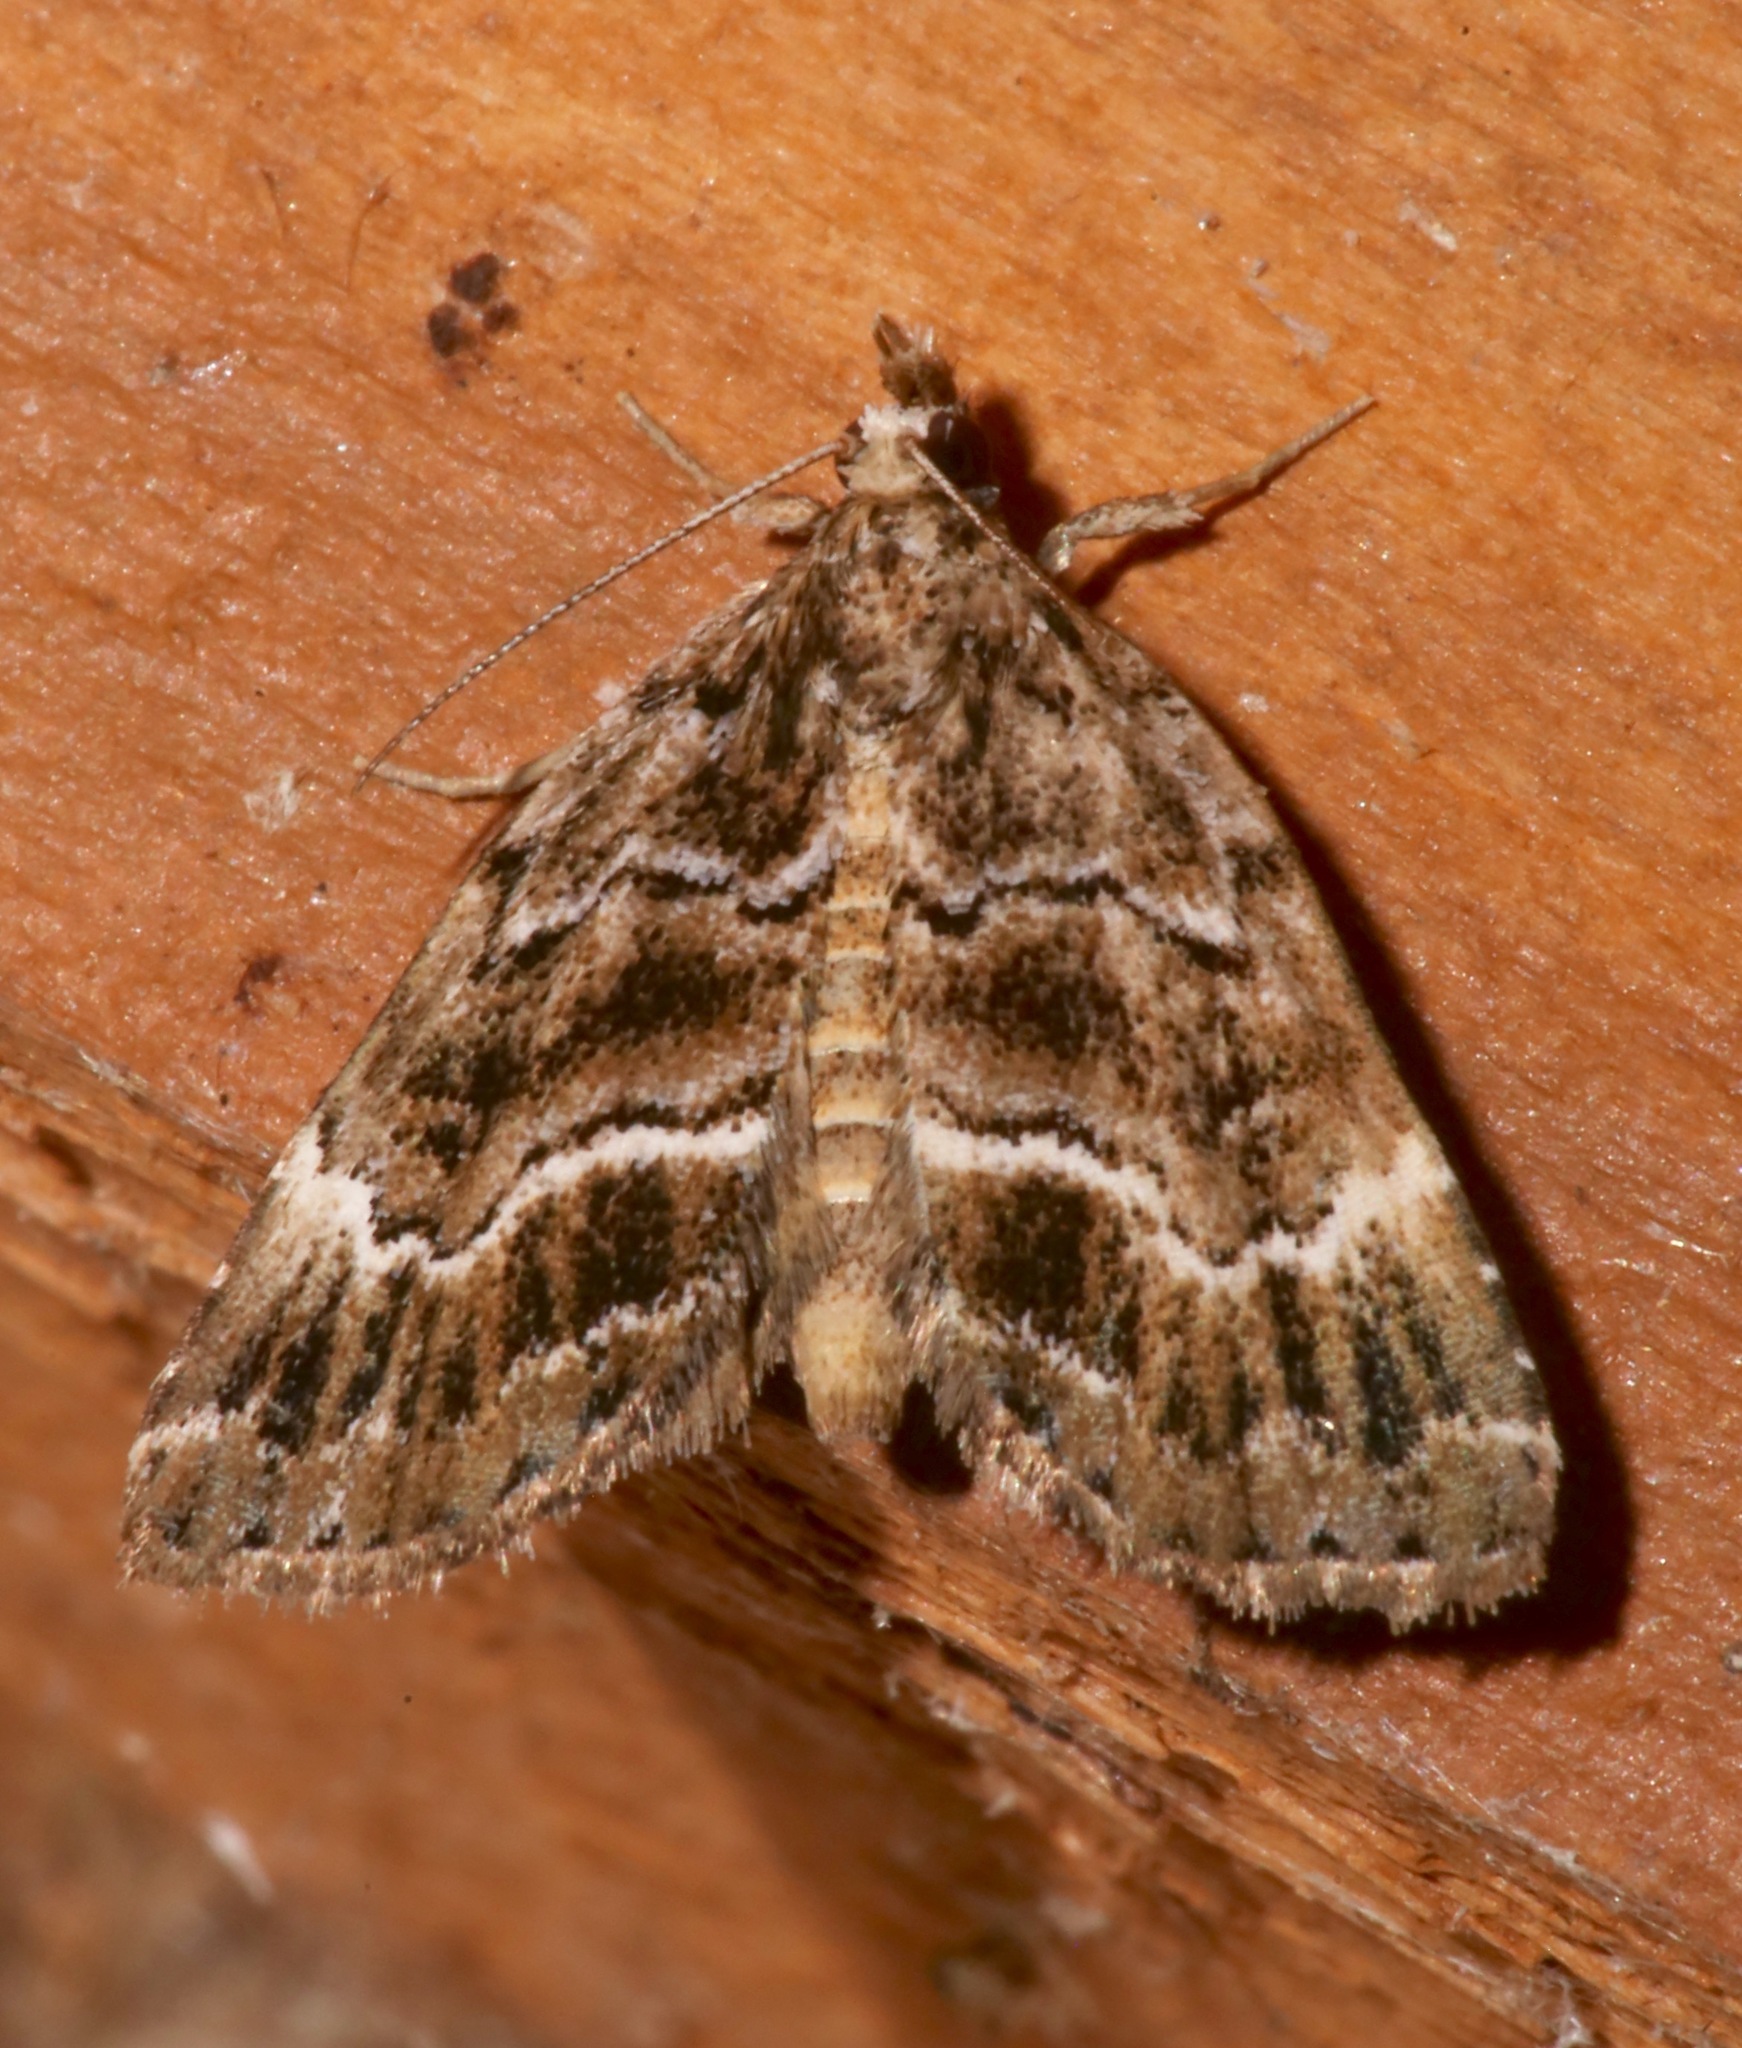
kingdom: Animalia
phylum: Arthropoda
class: Insecta
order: Lepidoptera
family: Erebidae
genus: Cutina
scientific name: Cutina arcuata
